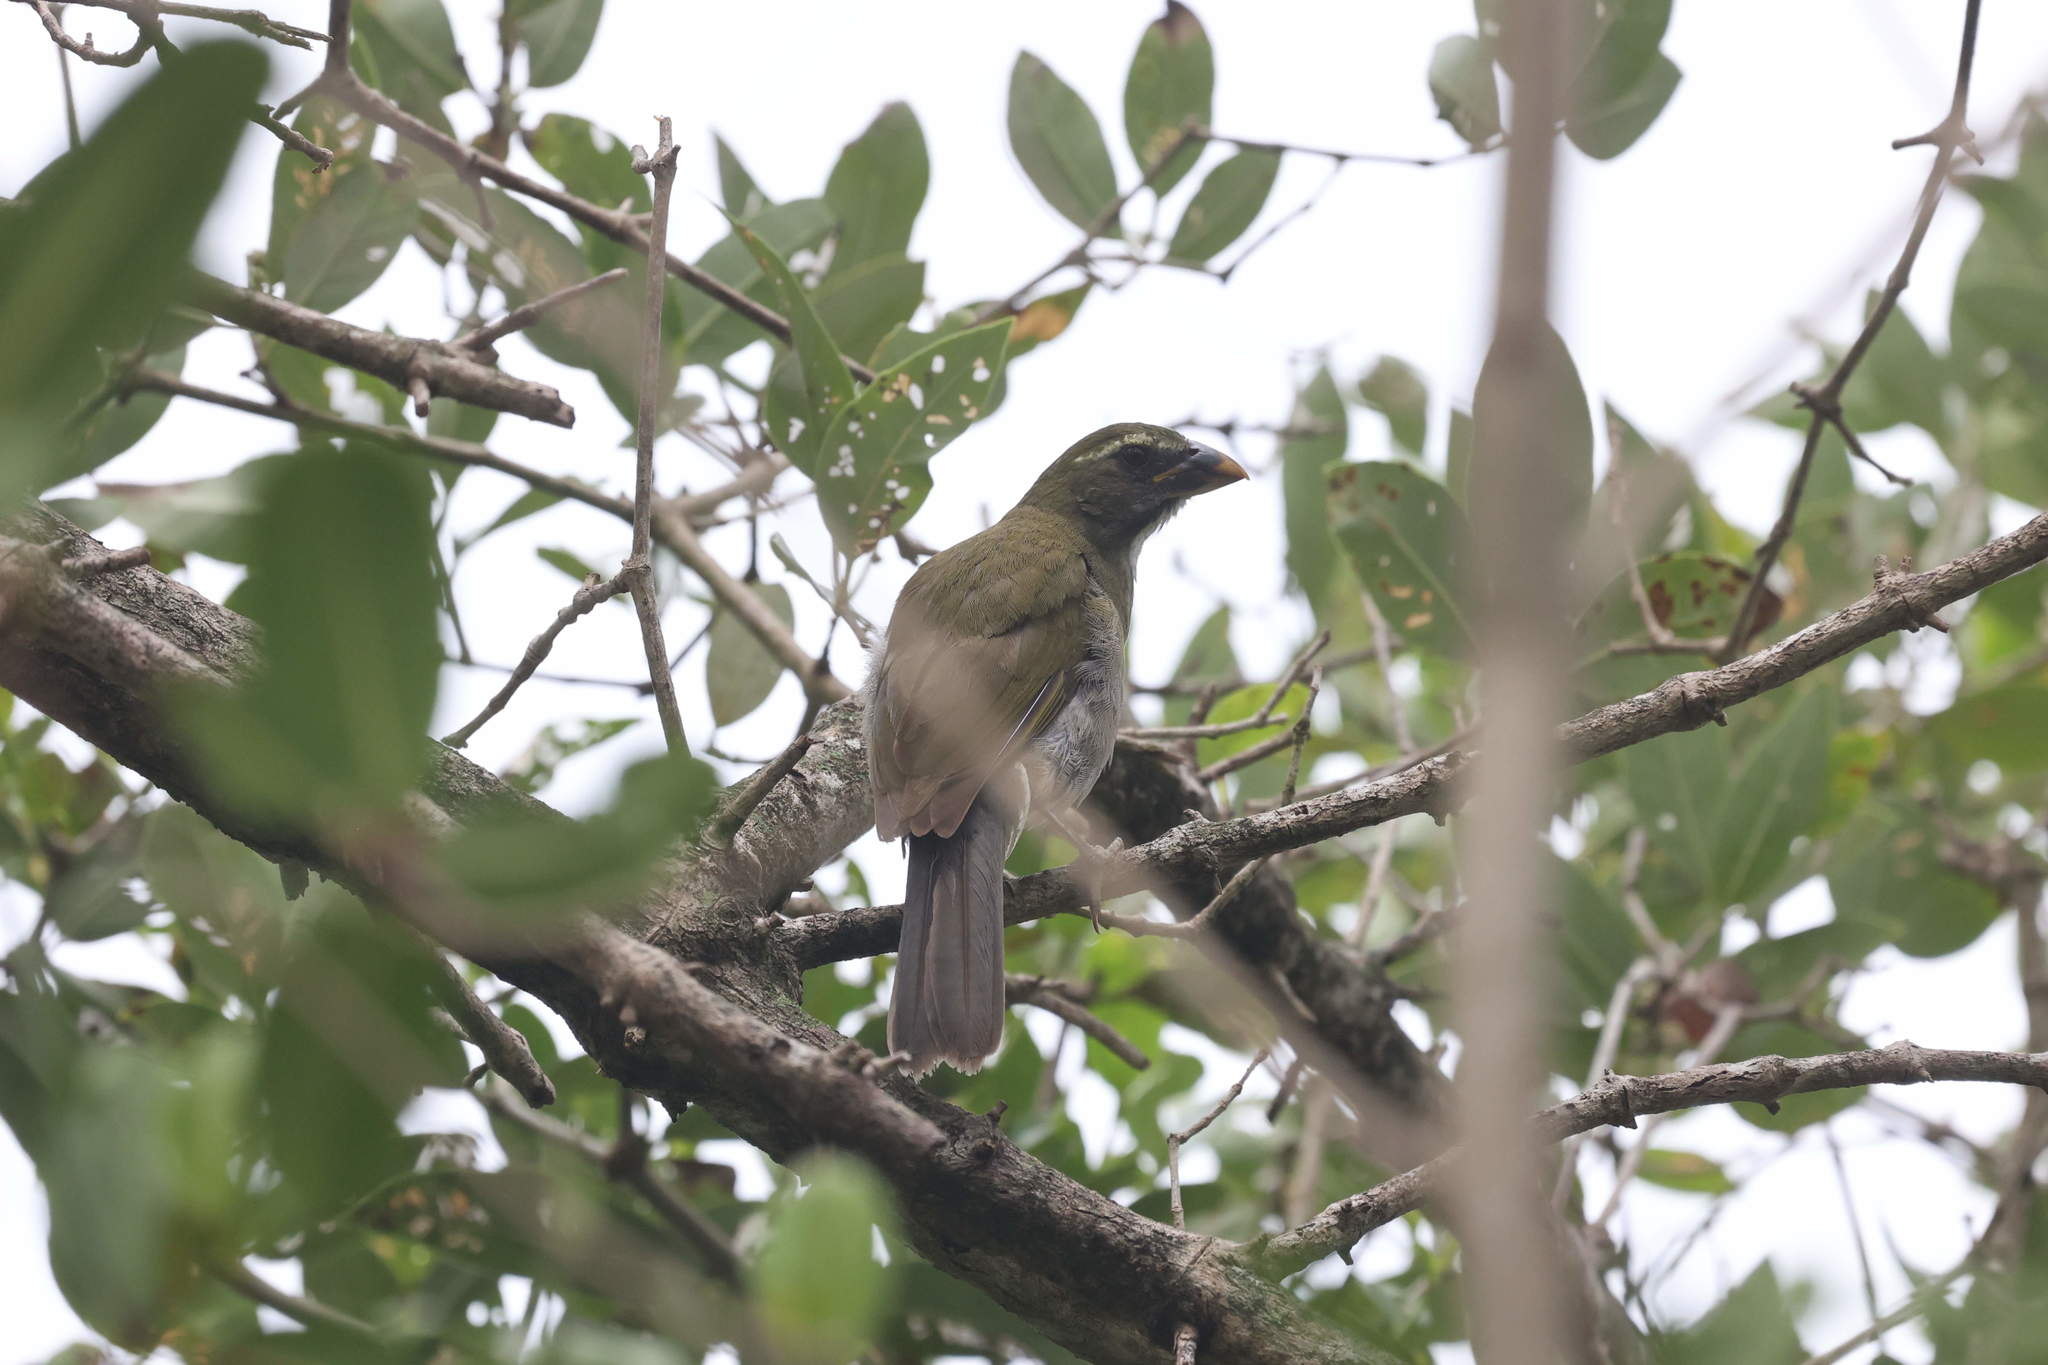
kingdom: Animalia
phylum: Chordata
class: Aves
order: Passeriformes
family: Thraupidae
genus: Saltator
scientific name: Saltator albicollis
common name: Lesser antillean saltator
